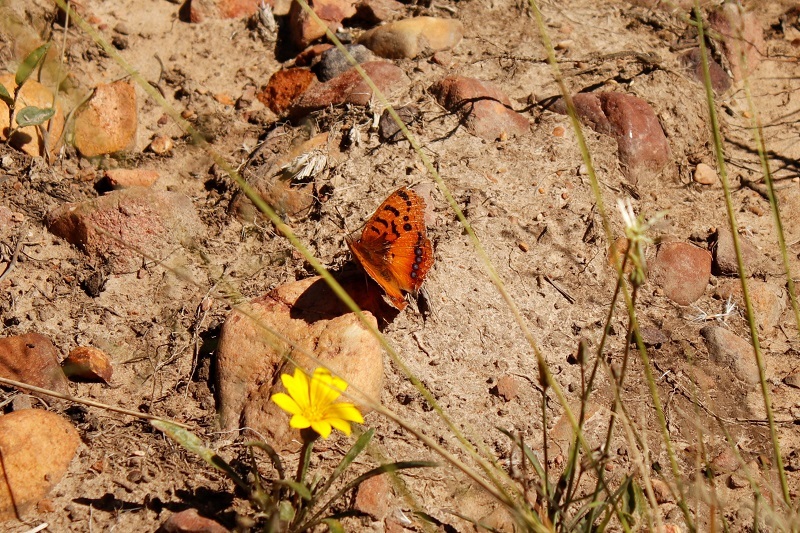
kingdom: Animalia
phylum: Arthropoda
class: Insecta
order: Lepidoptera
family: Nymphalidae
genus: Catacroptera
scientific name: Catacroptera cloanthe
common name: Pirate
